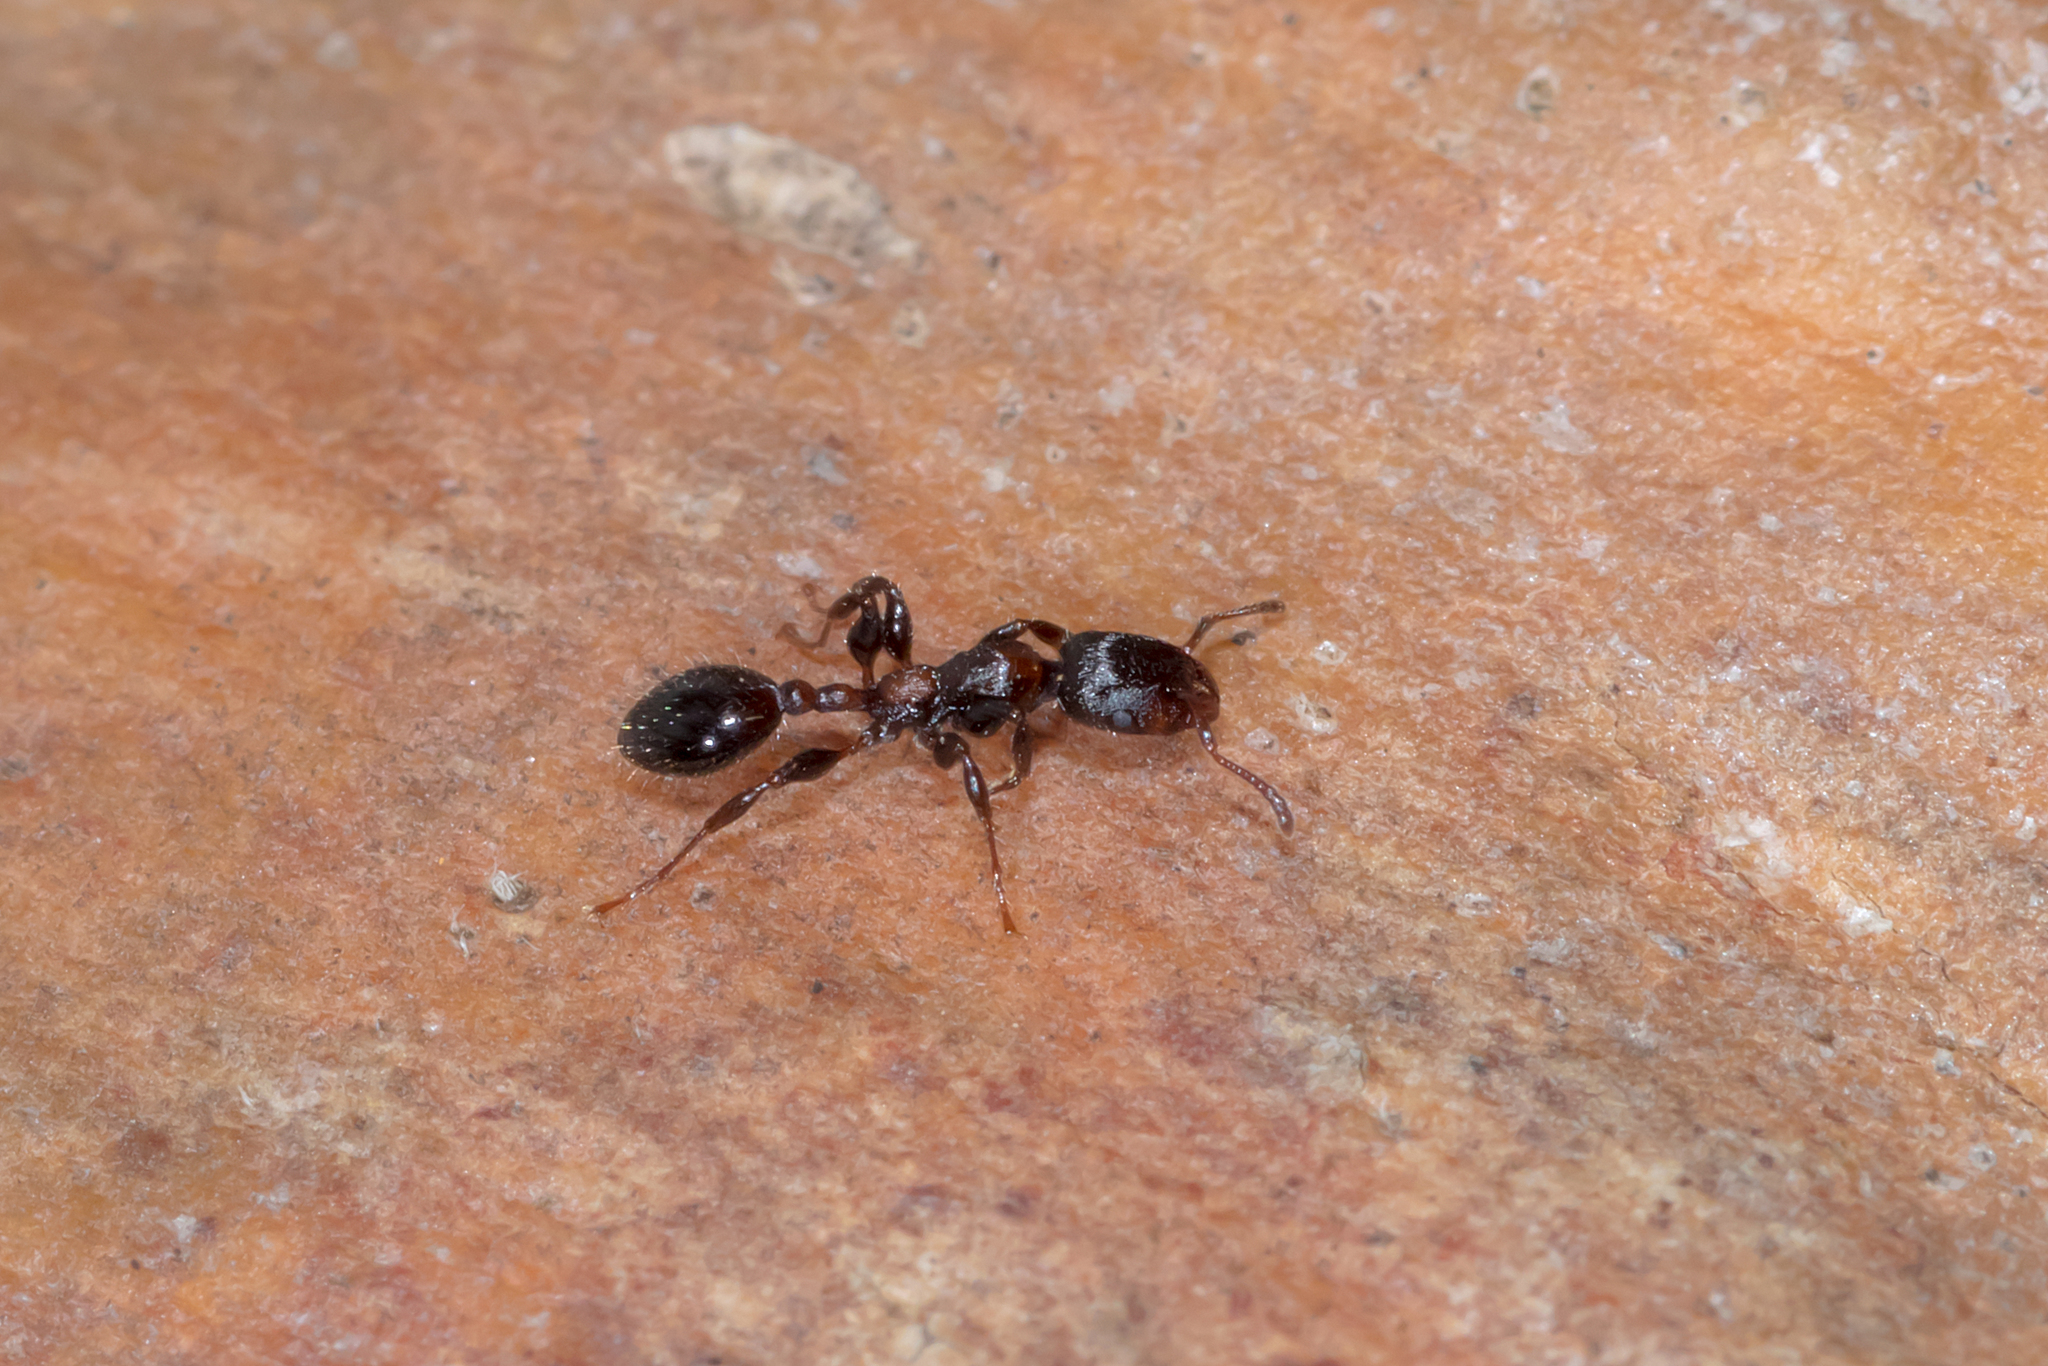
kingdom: Animalia
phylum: Arthropoda
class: Insecta
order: Hymenoptera
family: Formicidae
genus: Podomyrma
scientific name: Podomyrma elongata
